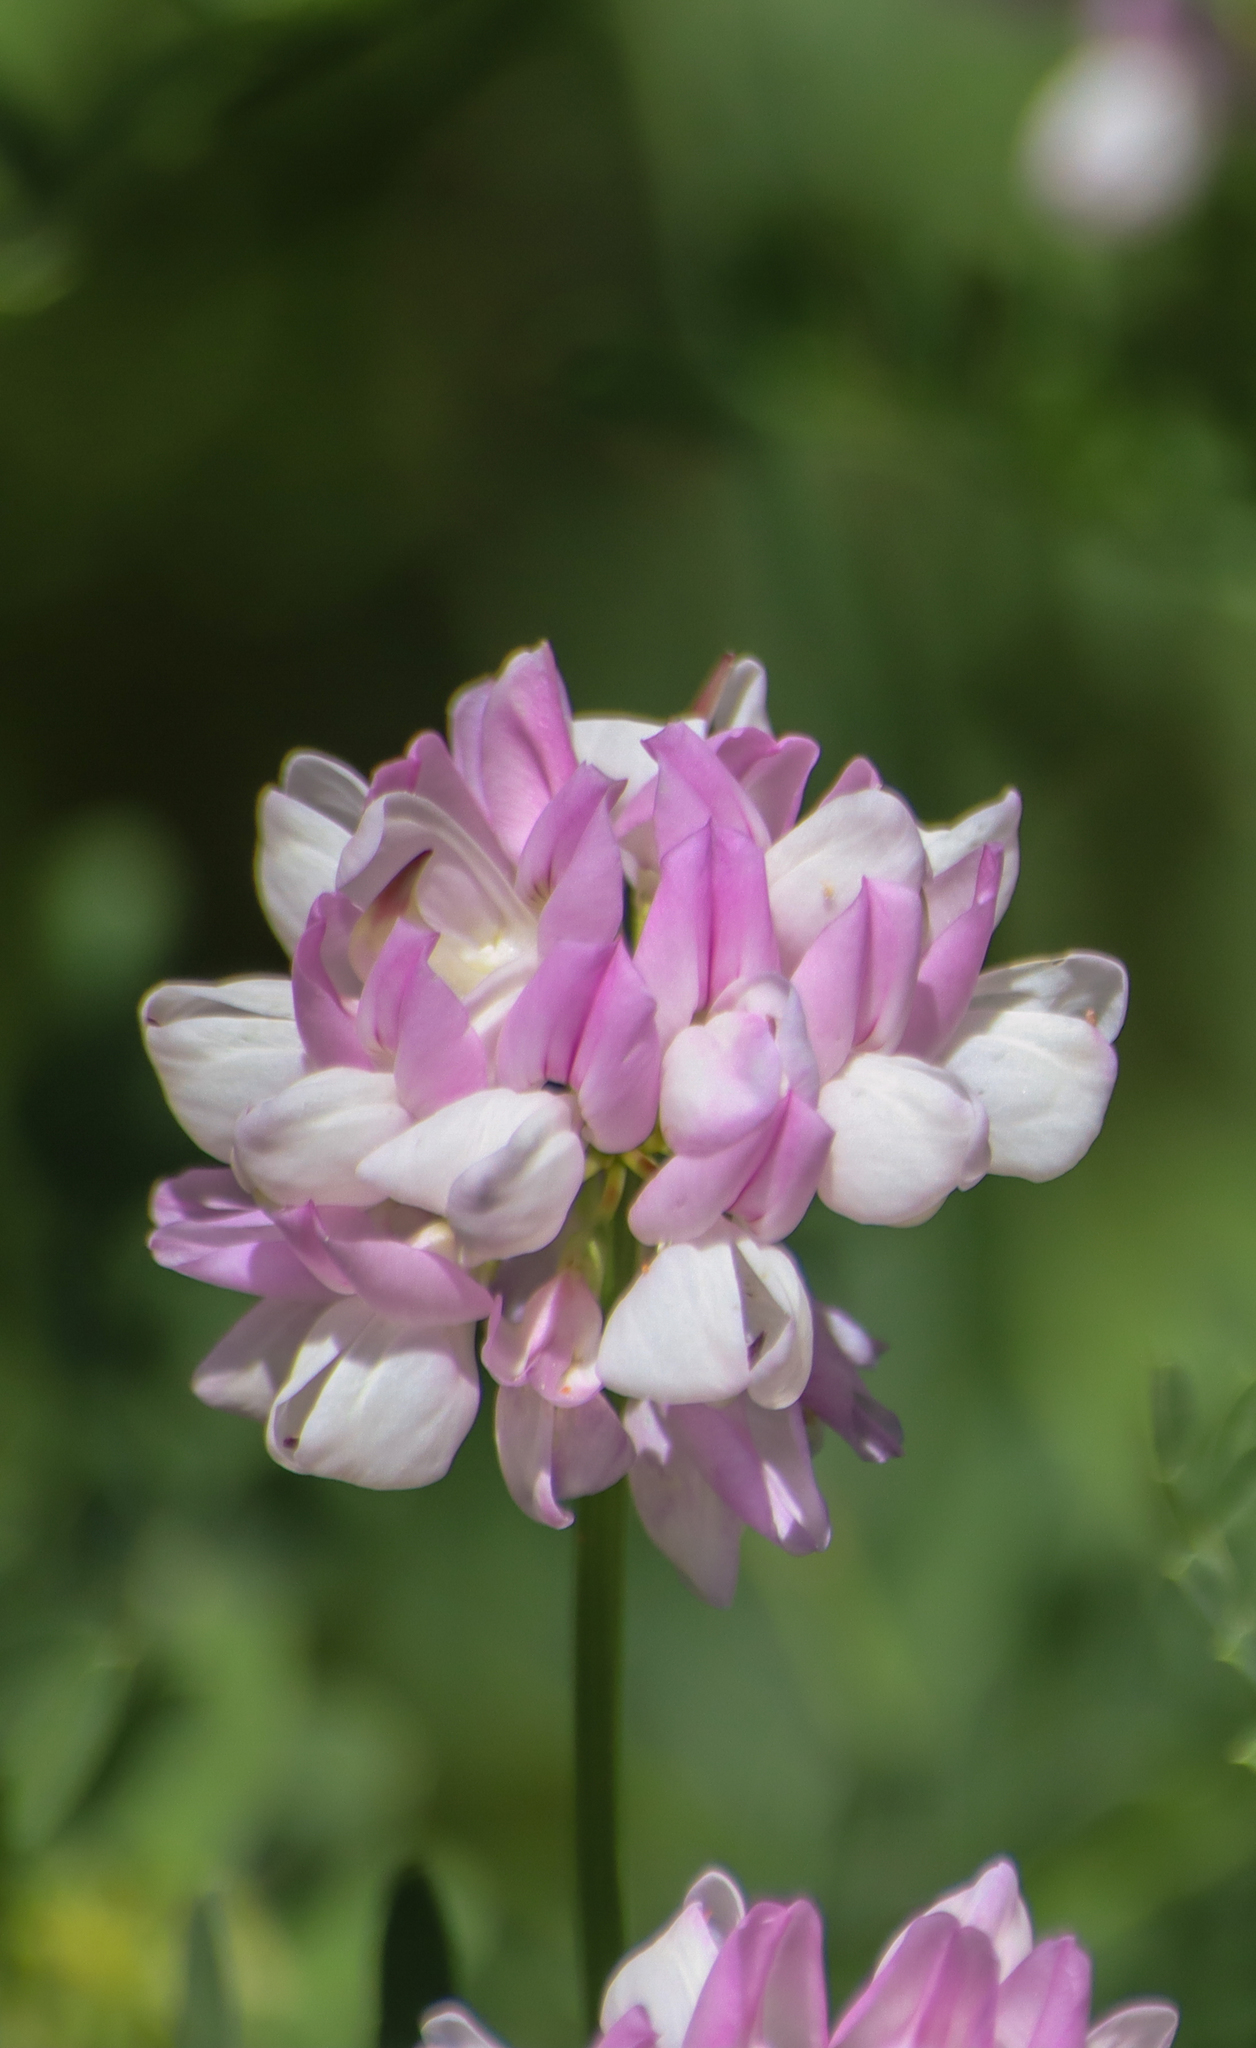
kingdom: Plantae
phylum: Tracheophyta
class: Magnoliopsida
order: Fabales
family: Fabaceae
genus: Coronilla
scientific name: Coronilla varia
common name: Crownvetch
